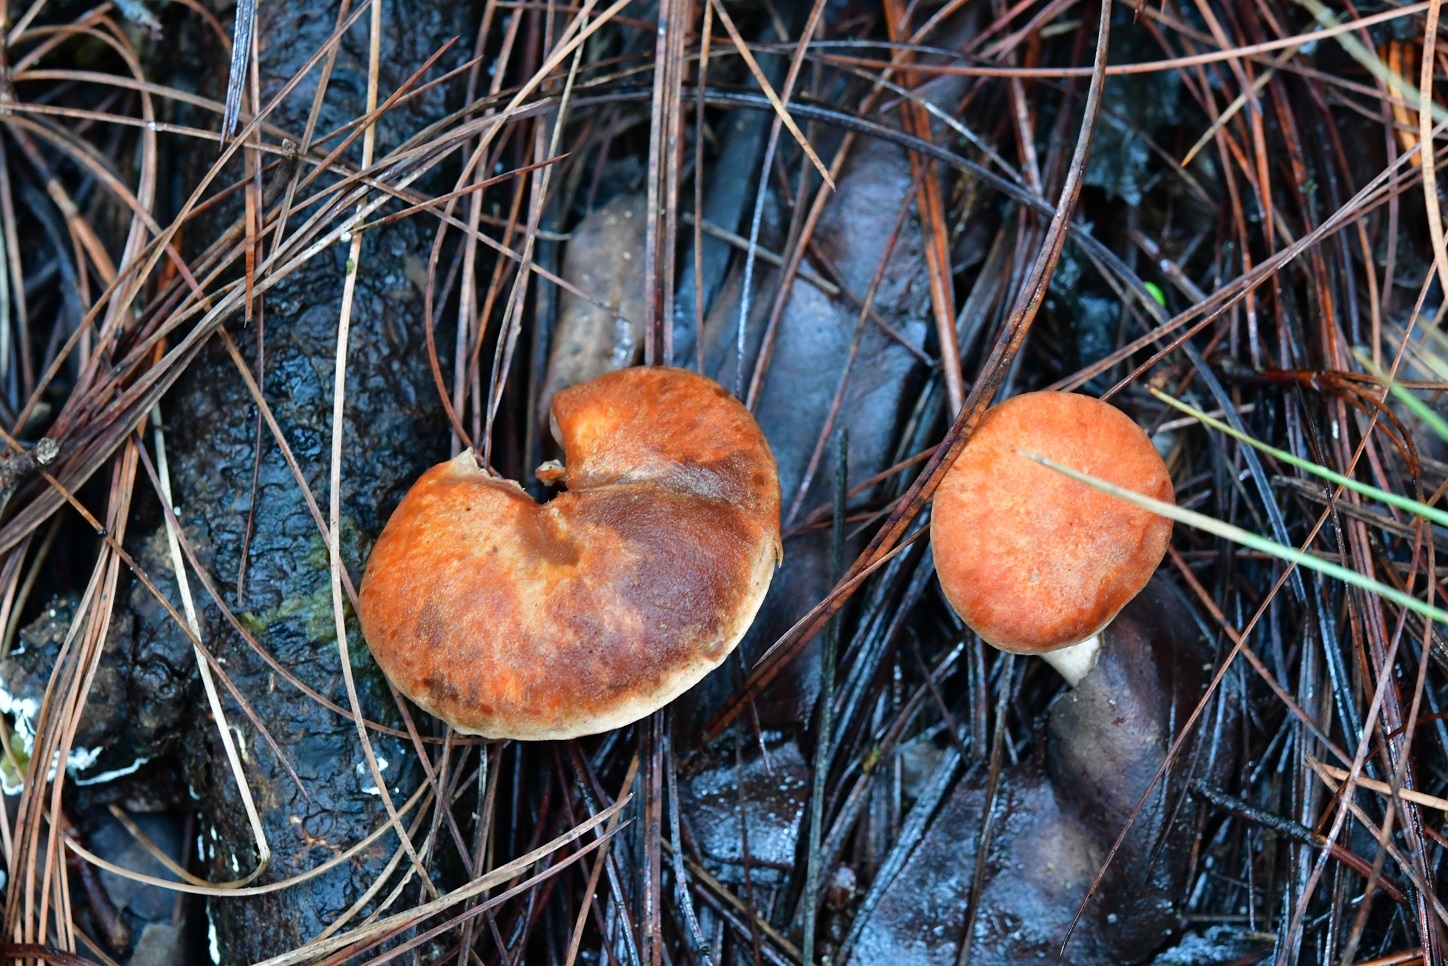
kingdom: Fungi
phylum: Basidiomycota
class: Agaricomycetes
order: Boletales
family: Boletaceae
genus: Tylopilus
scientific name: Tylopilus leucomycelinus
